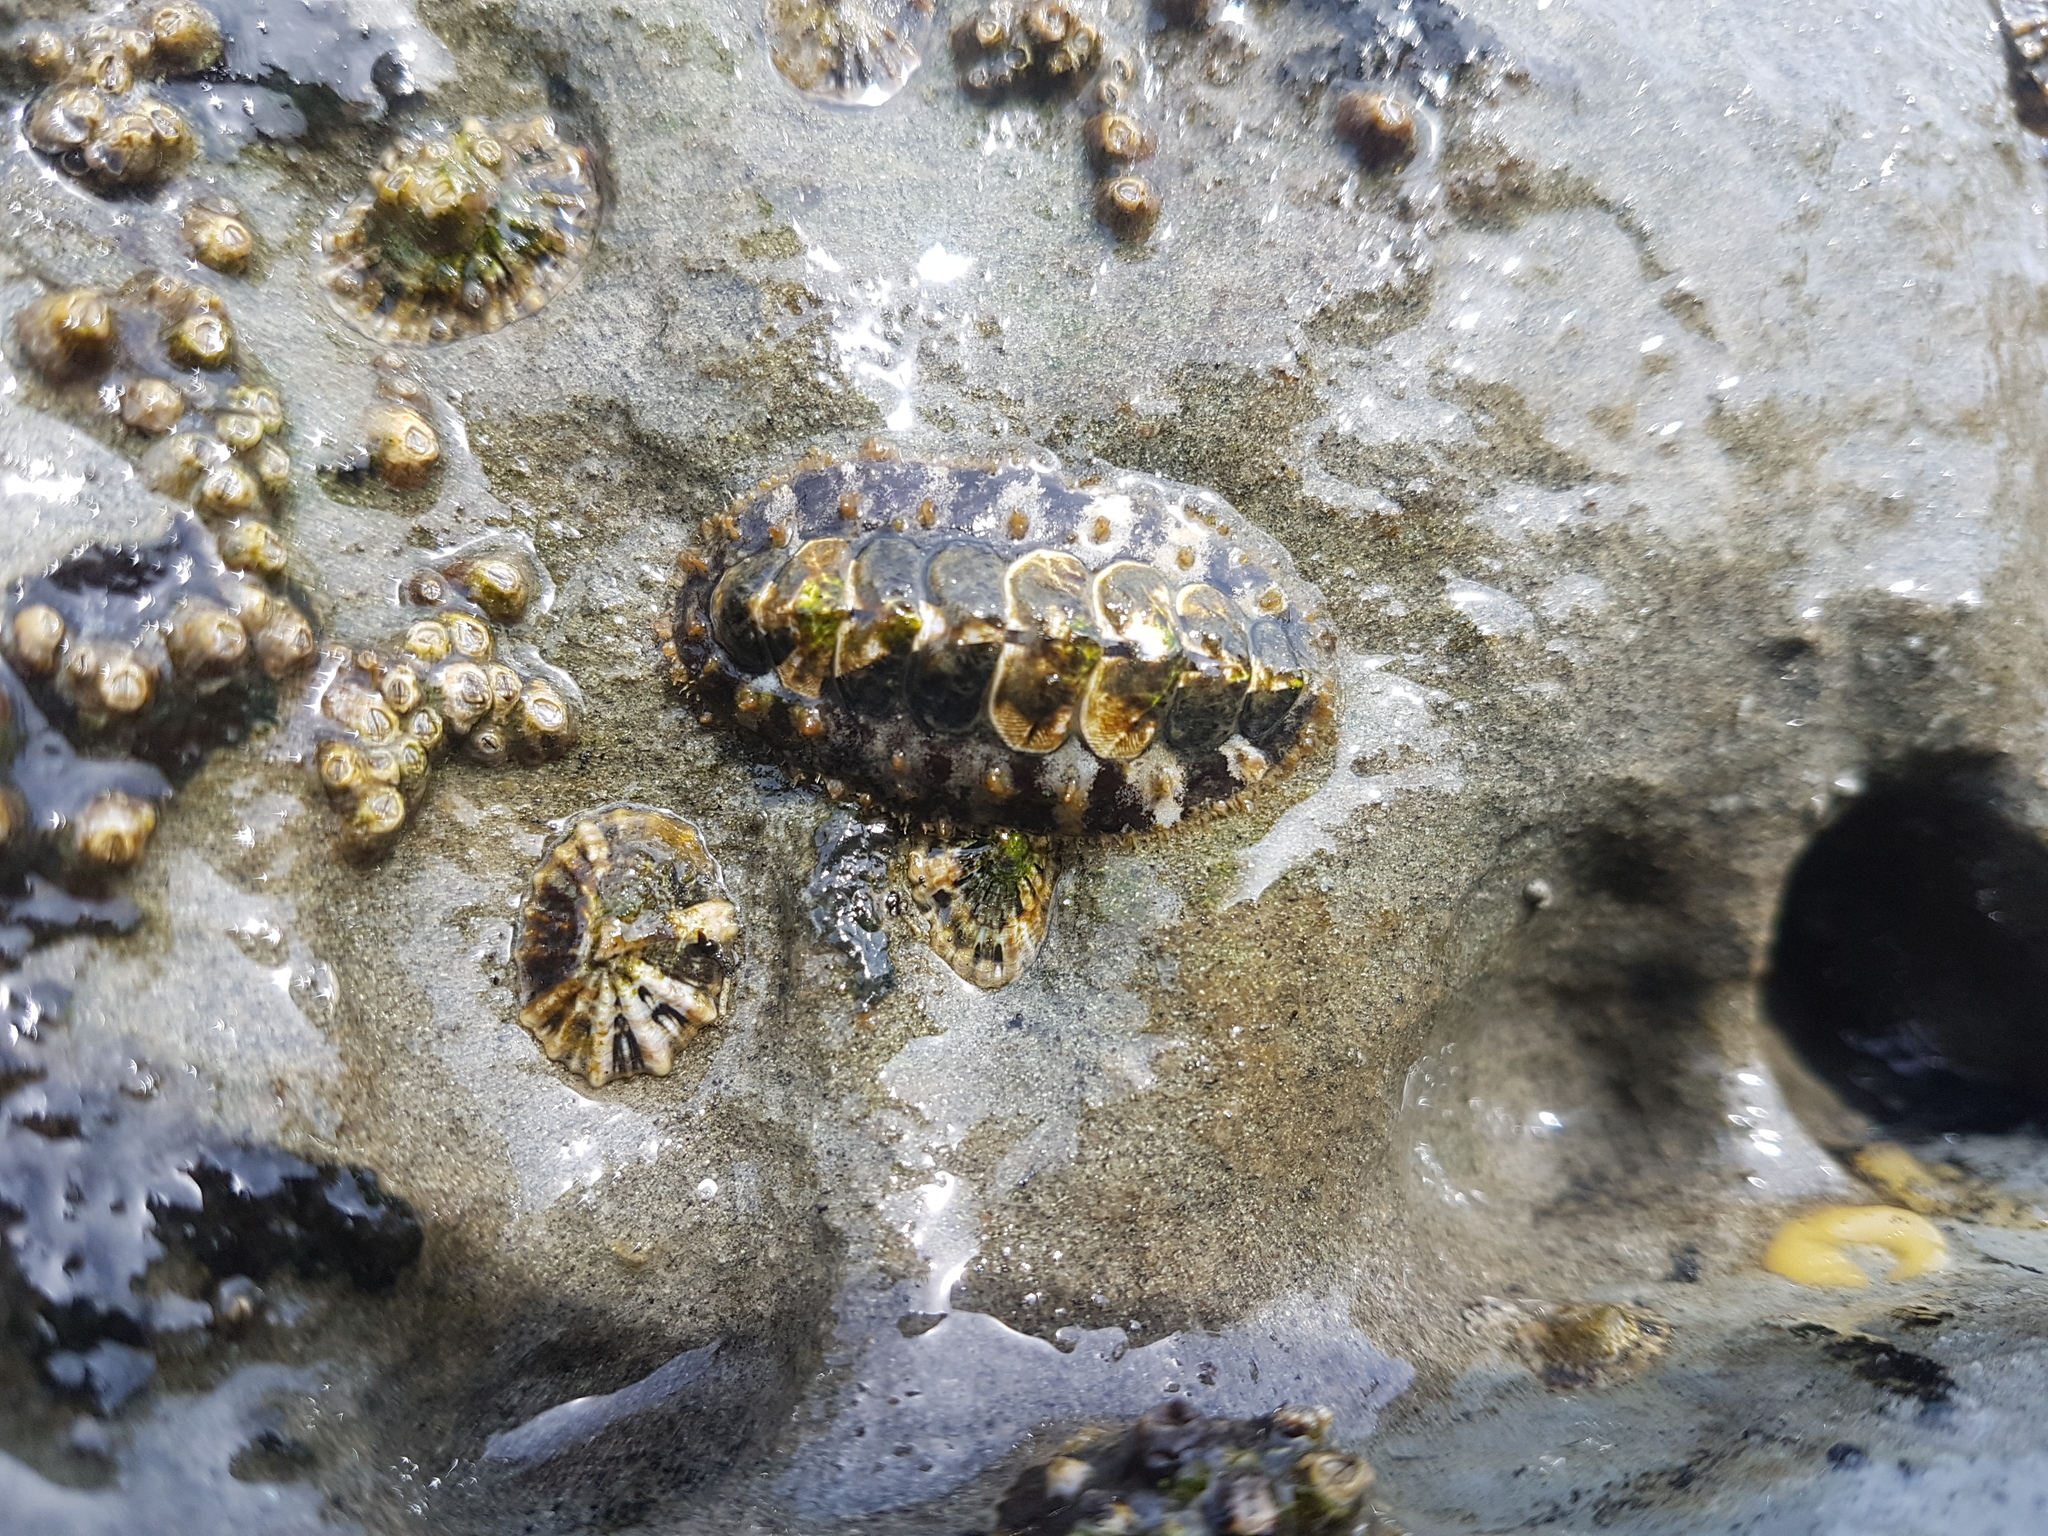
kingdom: Animalia
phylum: Mollusca
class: Polyplacophora
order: Chitonida
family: Mopaliidae
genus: Plaxiphora
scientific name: Plaxiphora caelata
